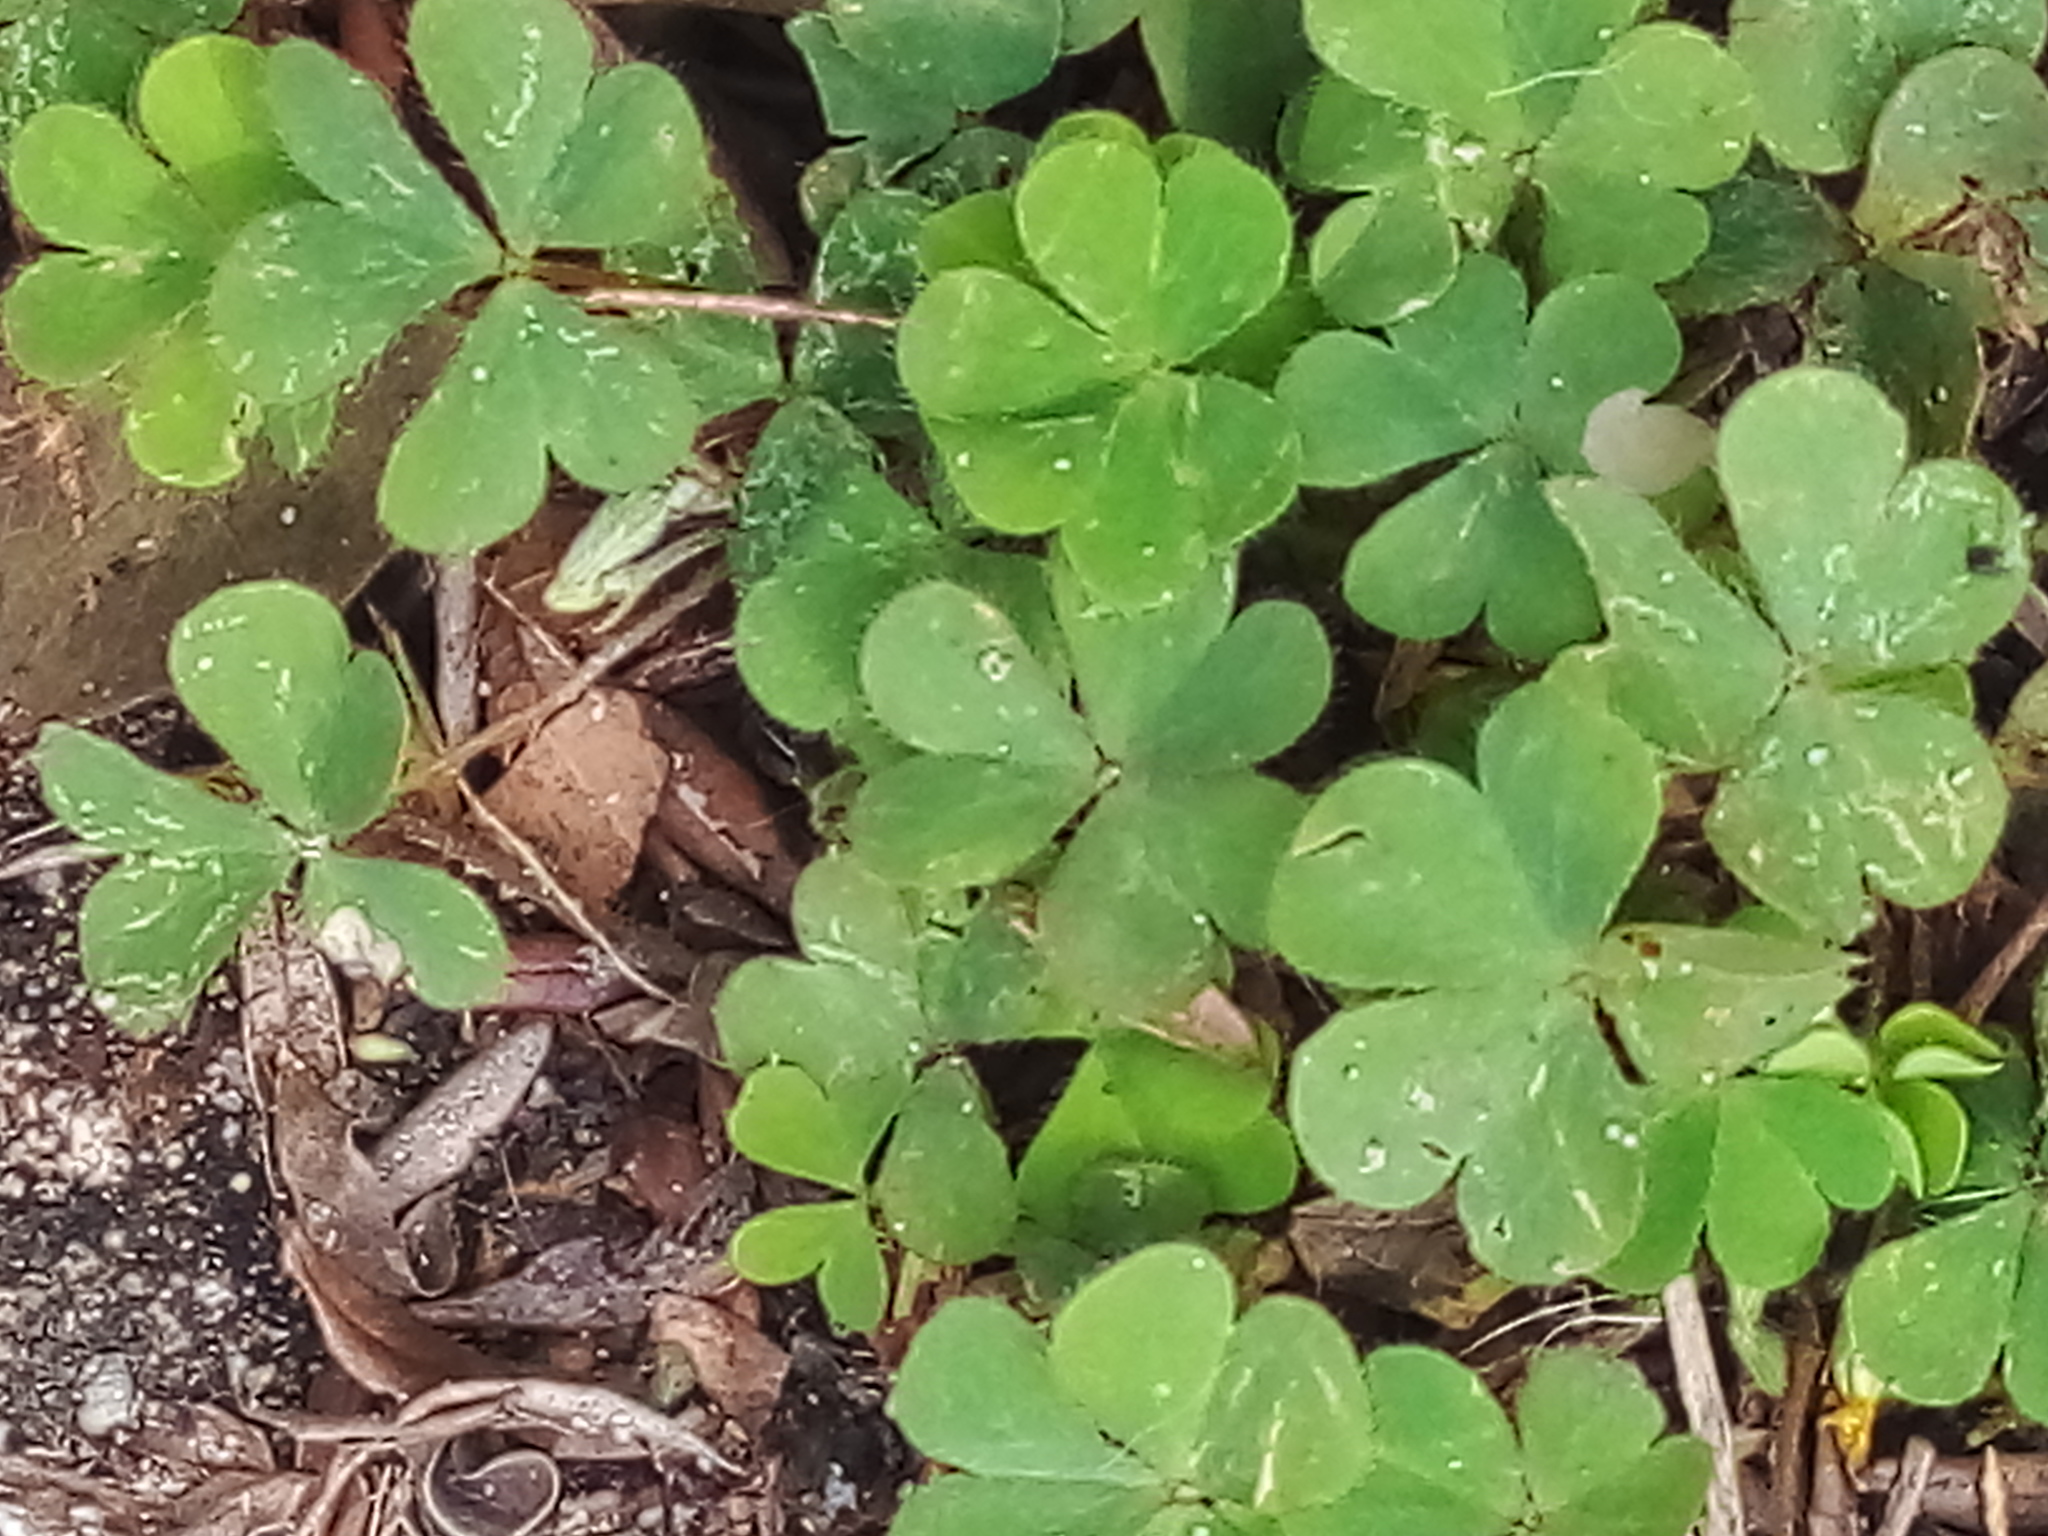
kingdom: Plantae
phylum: Tracheophyta
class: Magnoliopsida
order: Oxalidales
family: Oxalidaceae
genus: Oxalis
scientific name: Oxalis corniculata
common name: Procumbent yellow-sorrel
